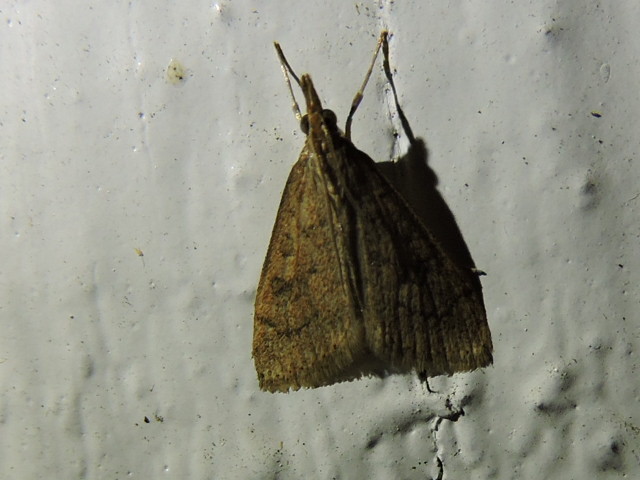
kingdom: Animalia
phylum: Arthropoda
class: Insecta
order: Lepidoptera
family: Crambidae
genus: Udea
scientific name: Udea rubigalis
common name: Celery leaftier moth
